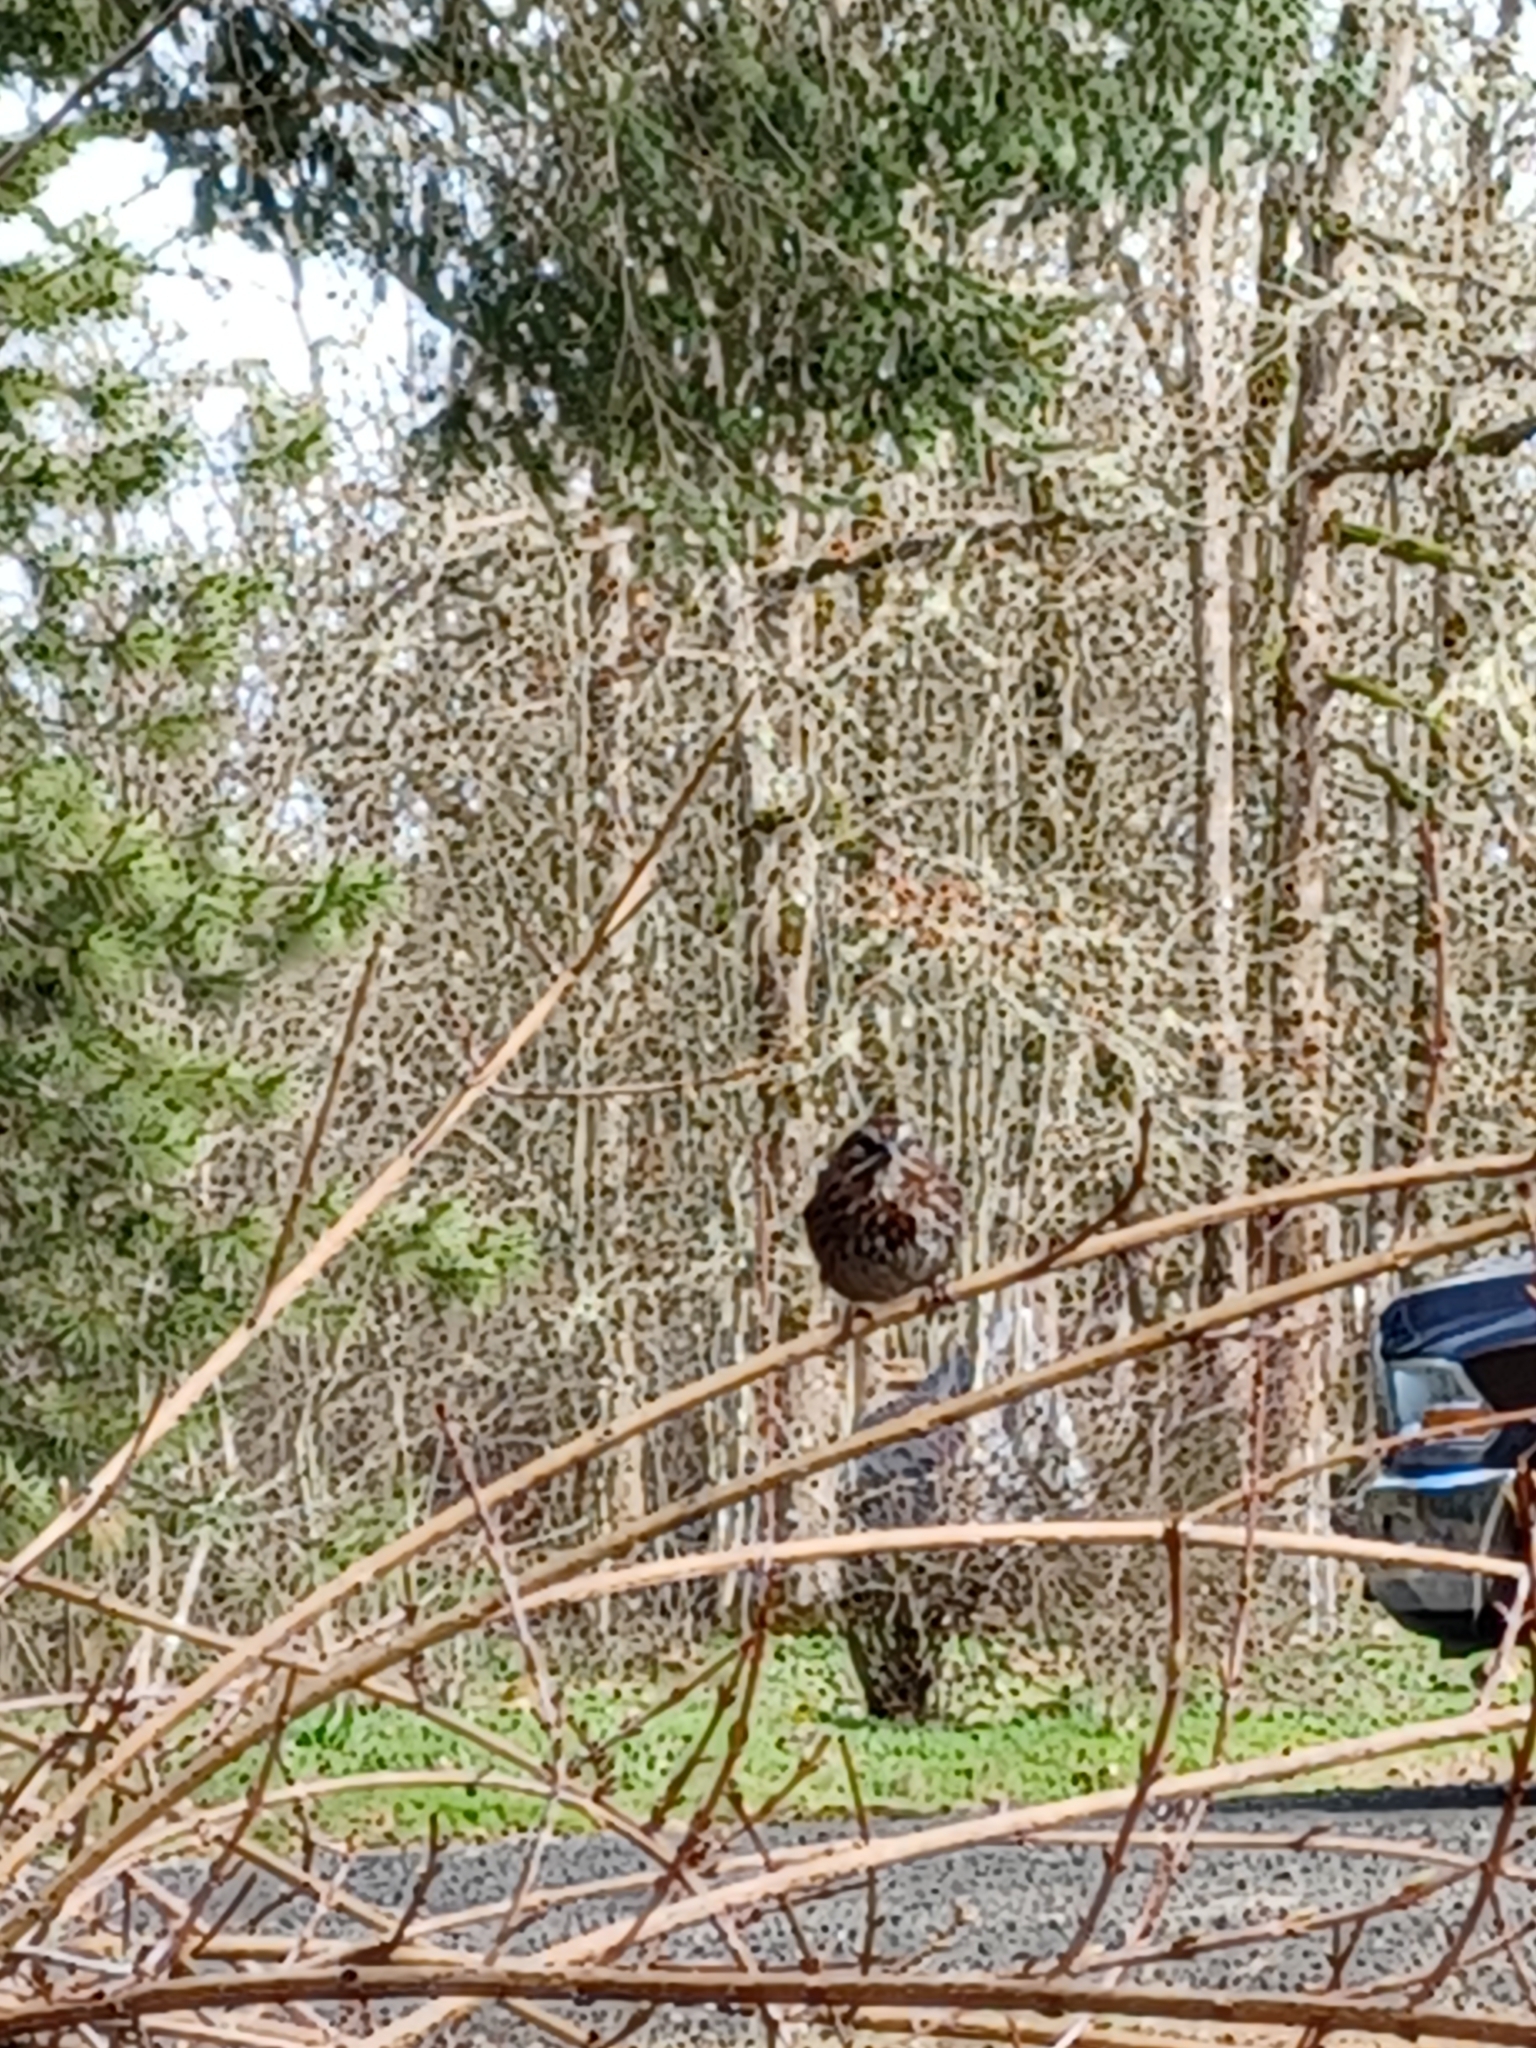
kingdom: Animalia
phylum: Chordata
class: Aves
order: Passeriformes
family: Passerellidae
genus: Melospiza
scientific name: Melospiza melodia
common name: Song sparrow
